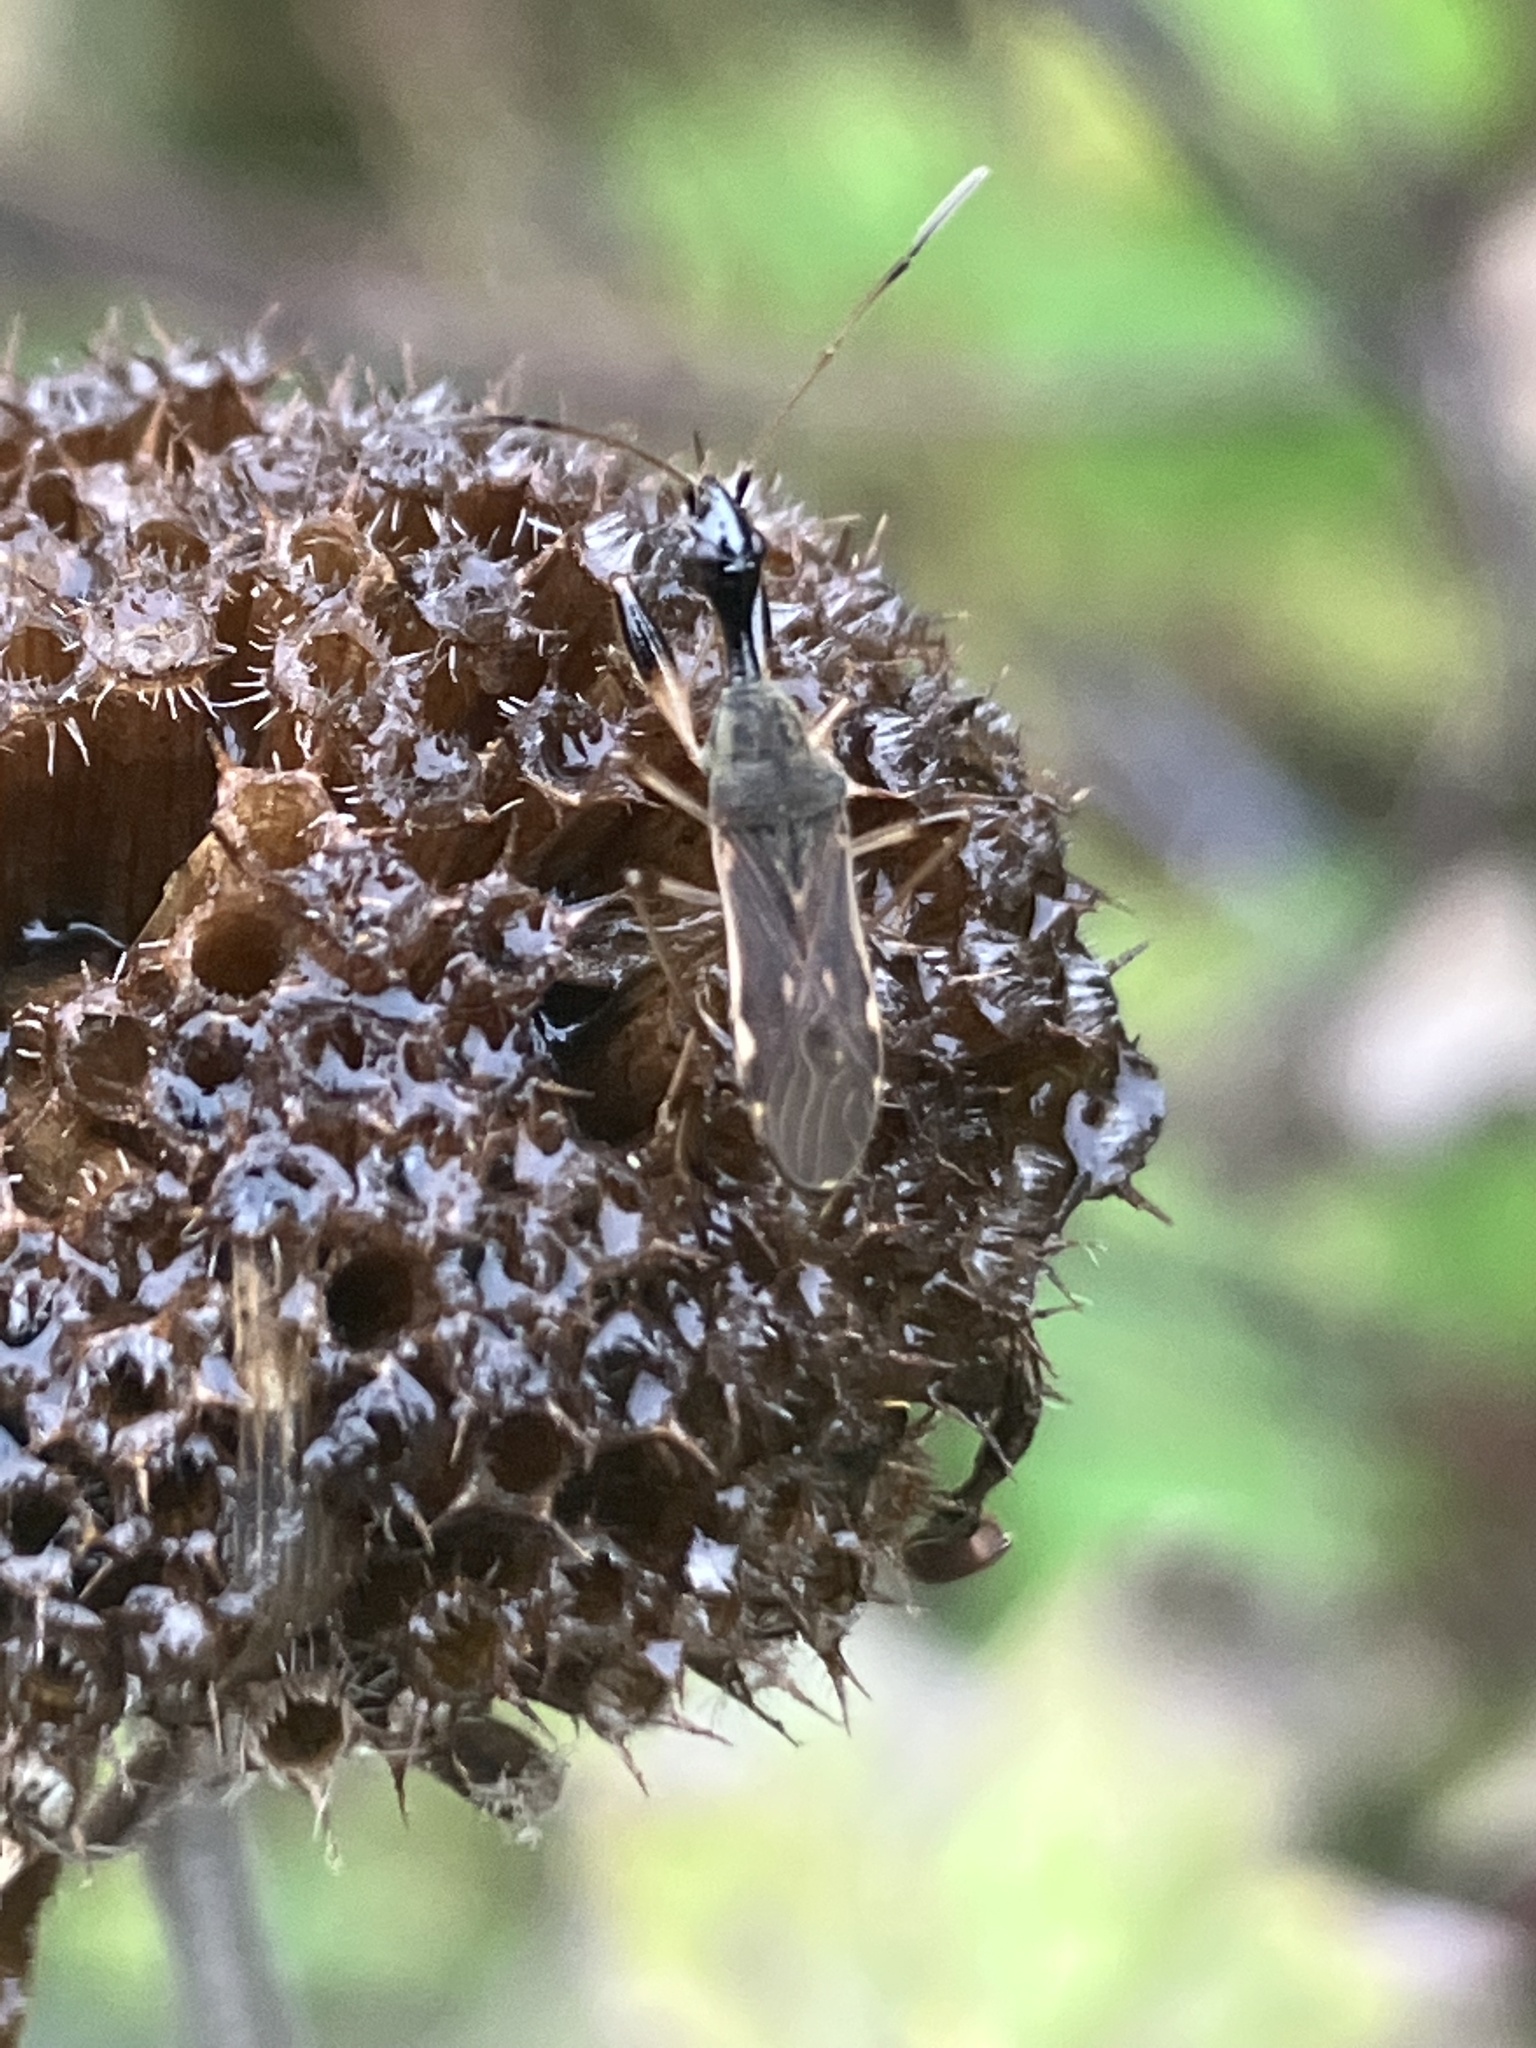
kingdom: Animalia
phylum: Arthropoda
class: Insecta
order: Hemiptera
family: Rhyparochromidae
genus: Myodocha
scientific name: Myodocha serripes
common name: Long-necked seed bug
